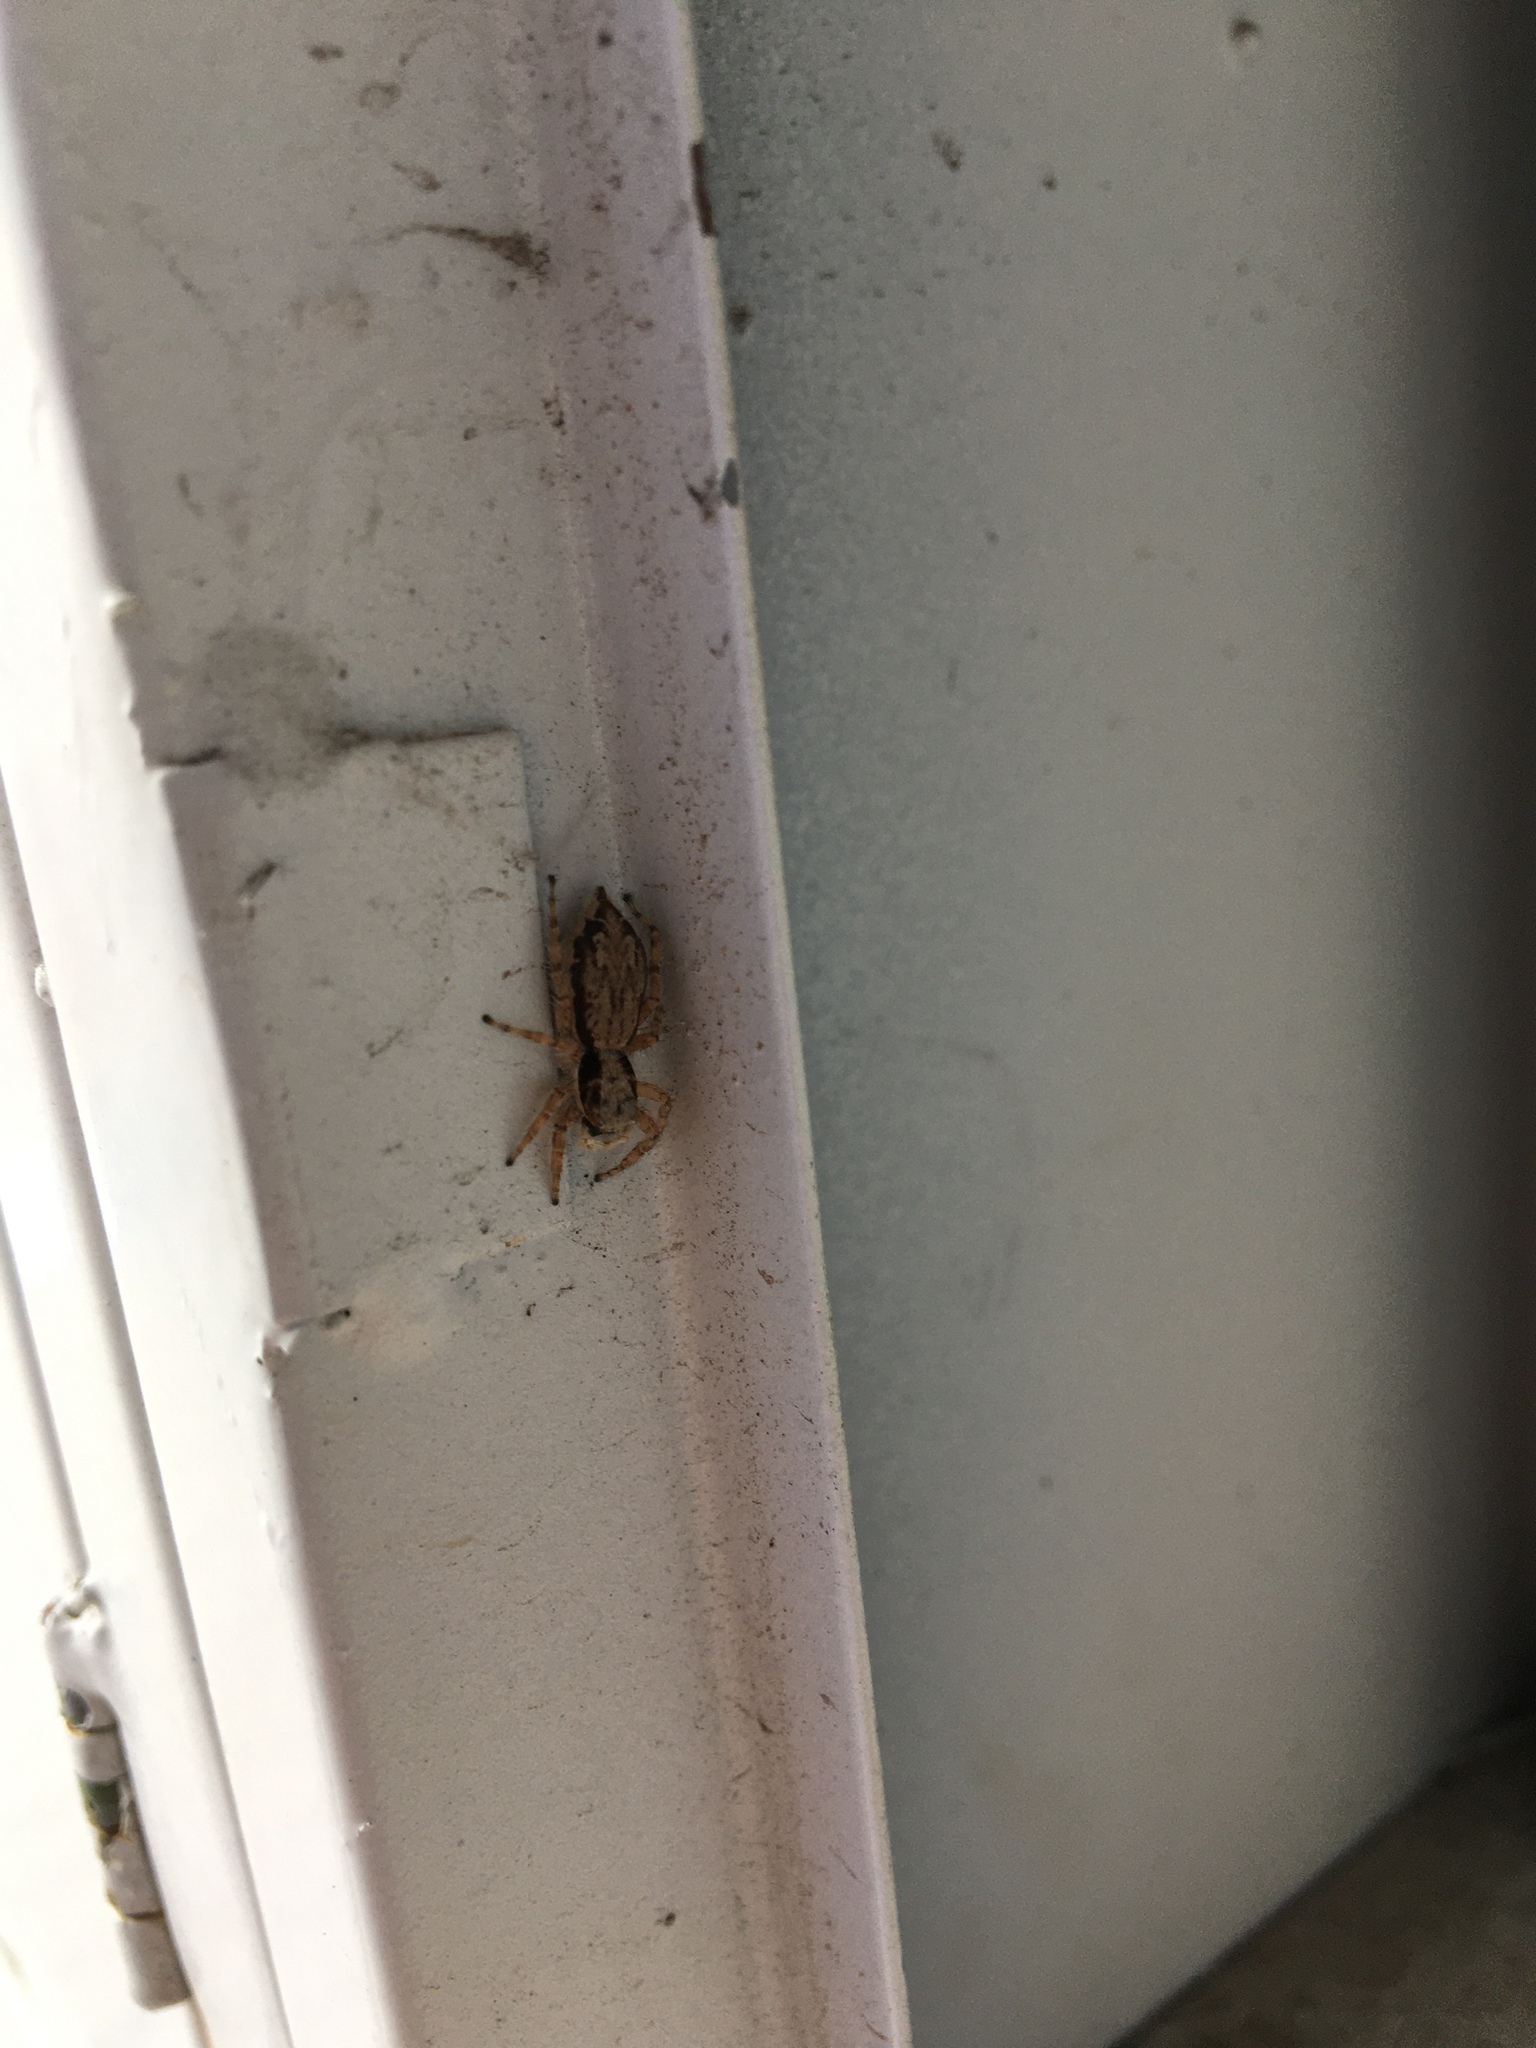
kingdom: Animalia
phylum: Arthropoda
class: Arachnida
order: Araneae
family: Salticidae
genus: Menemerus
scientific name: Menemerus bivittatus
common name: Gray wall jumper
